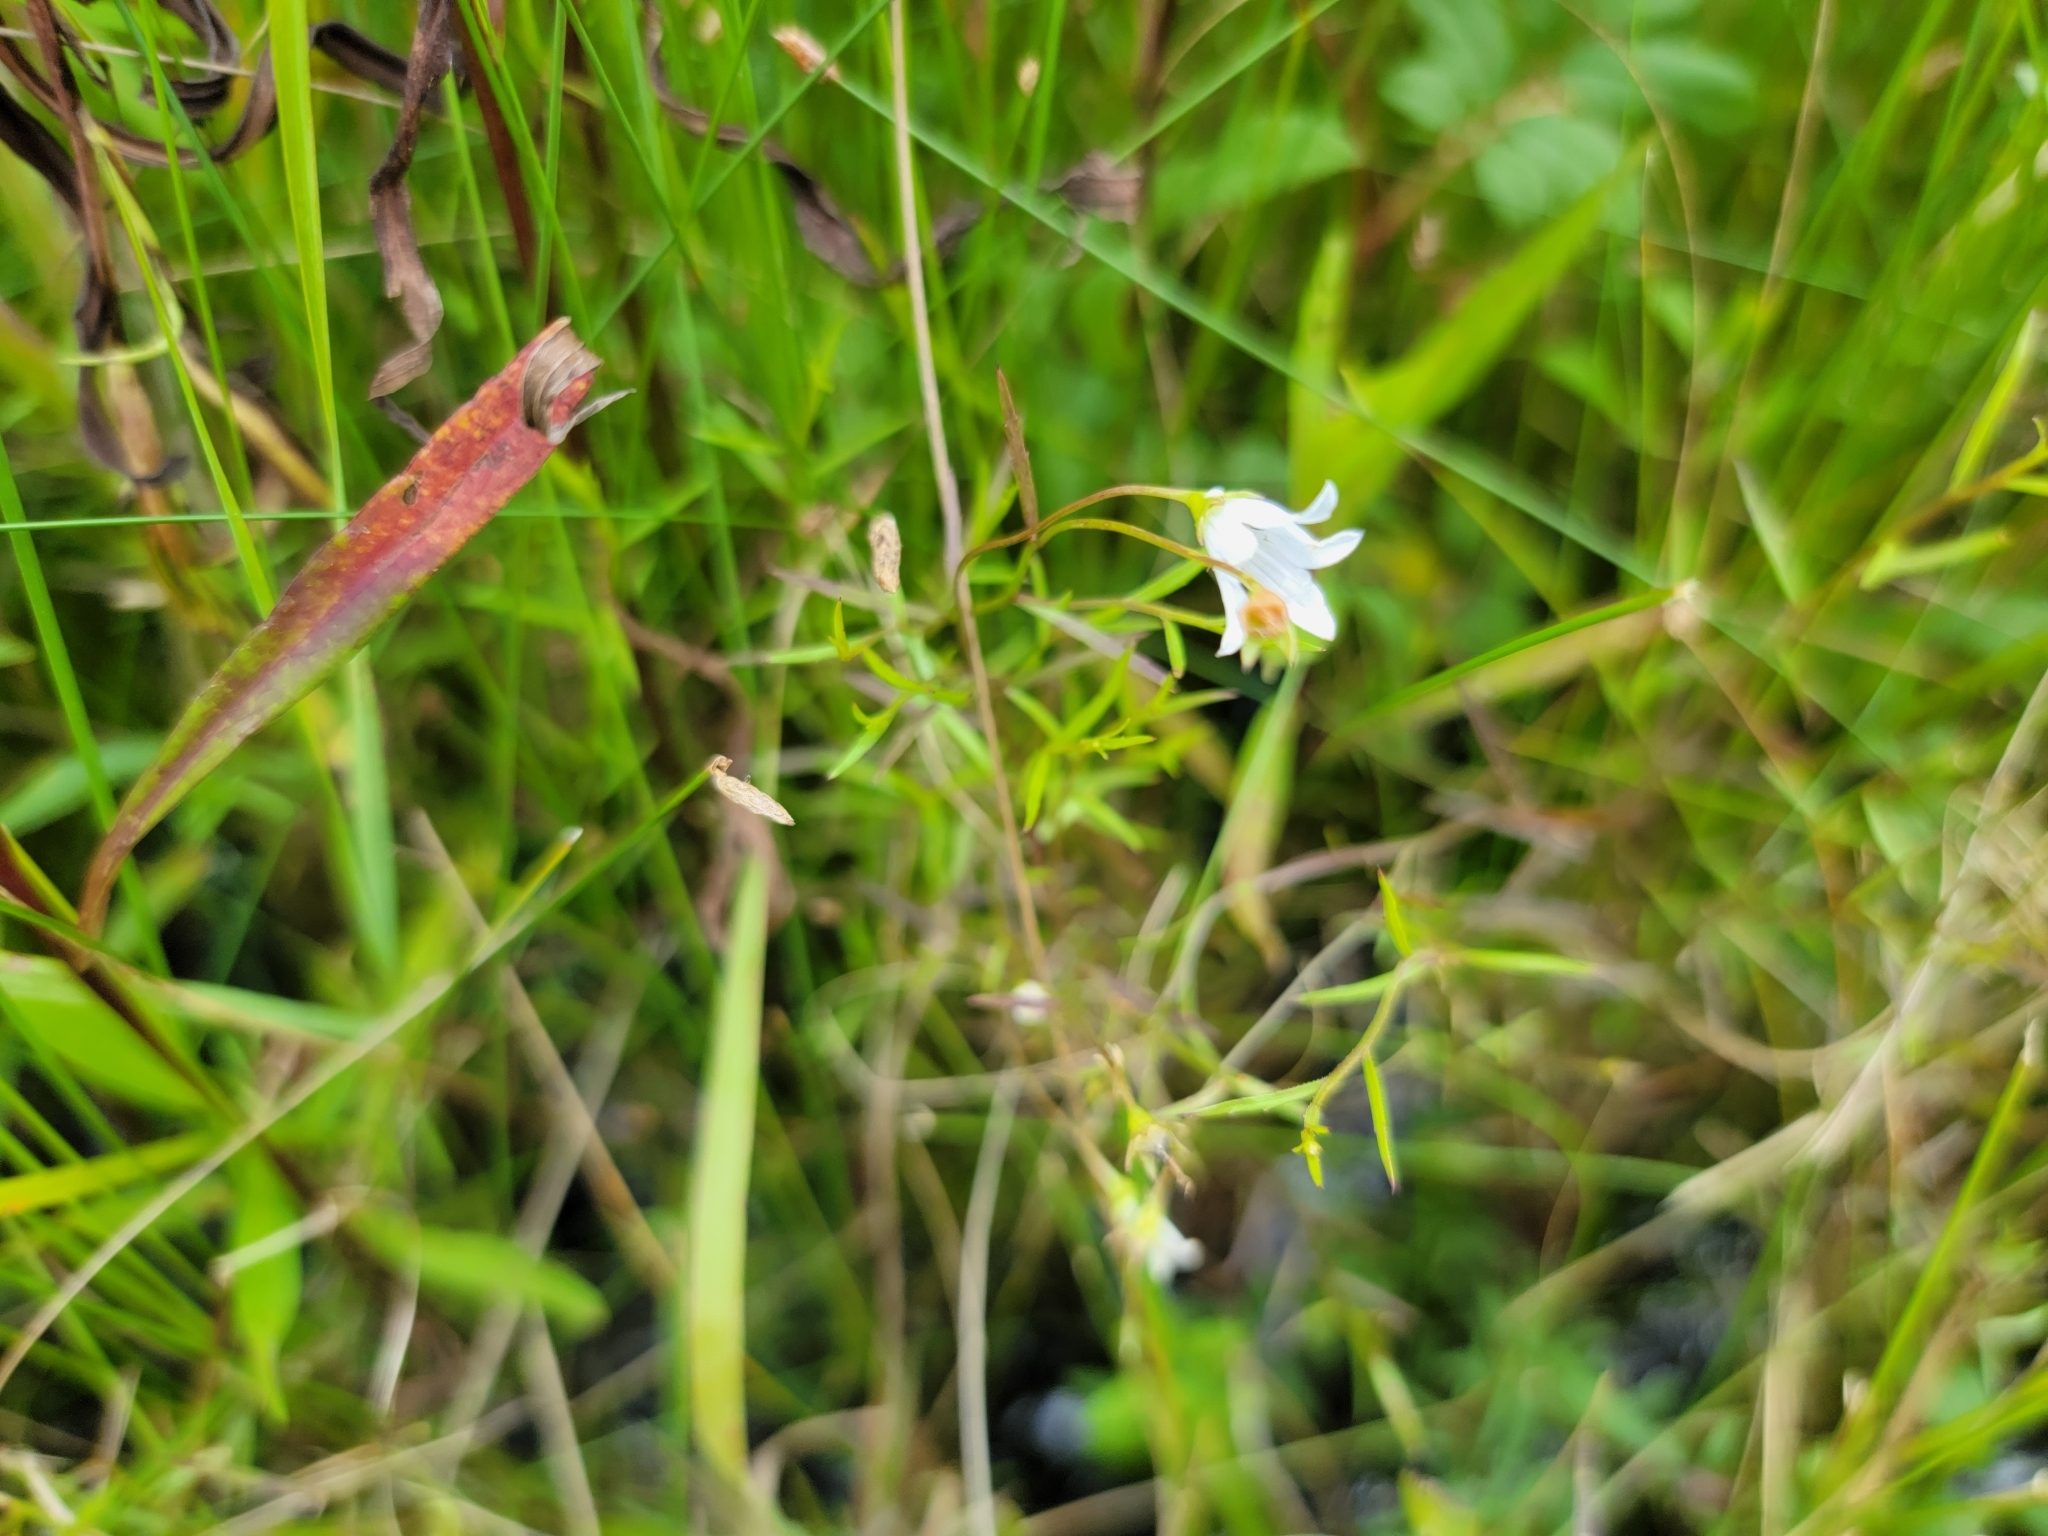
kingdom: Plantae
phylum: Tracheophyta
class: Magnoliopsida
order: Asterales
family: Campanulaceae
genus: Palustricodon
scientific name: Palustricodon aparinoides
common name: Bedstraw bellflower
